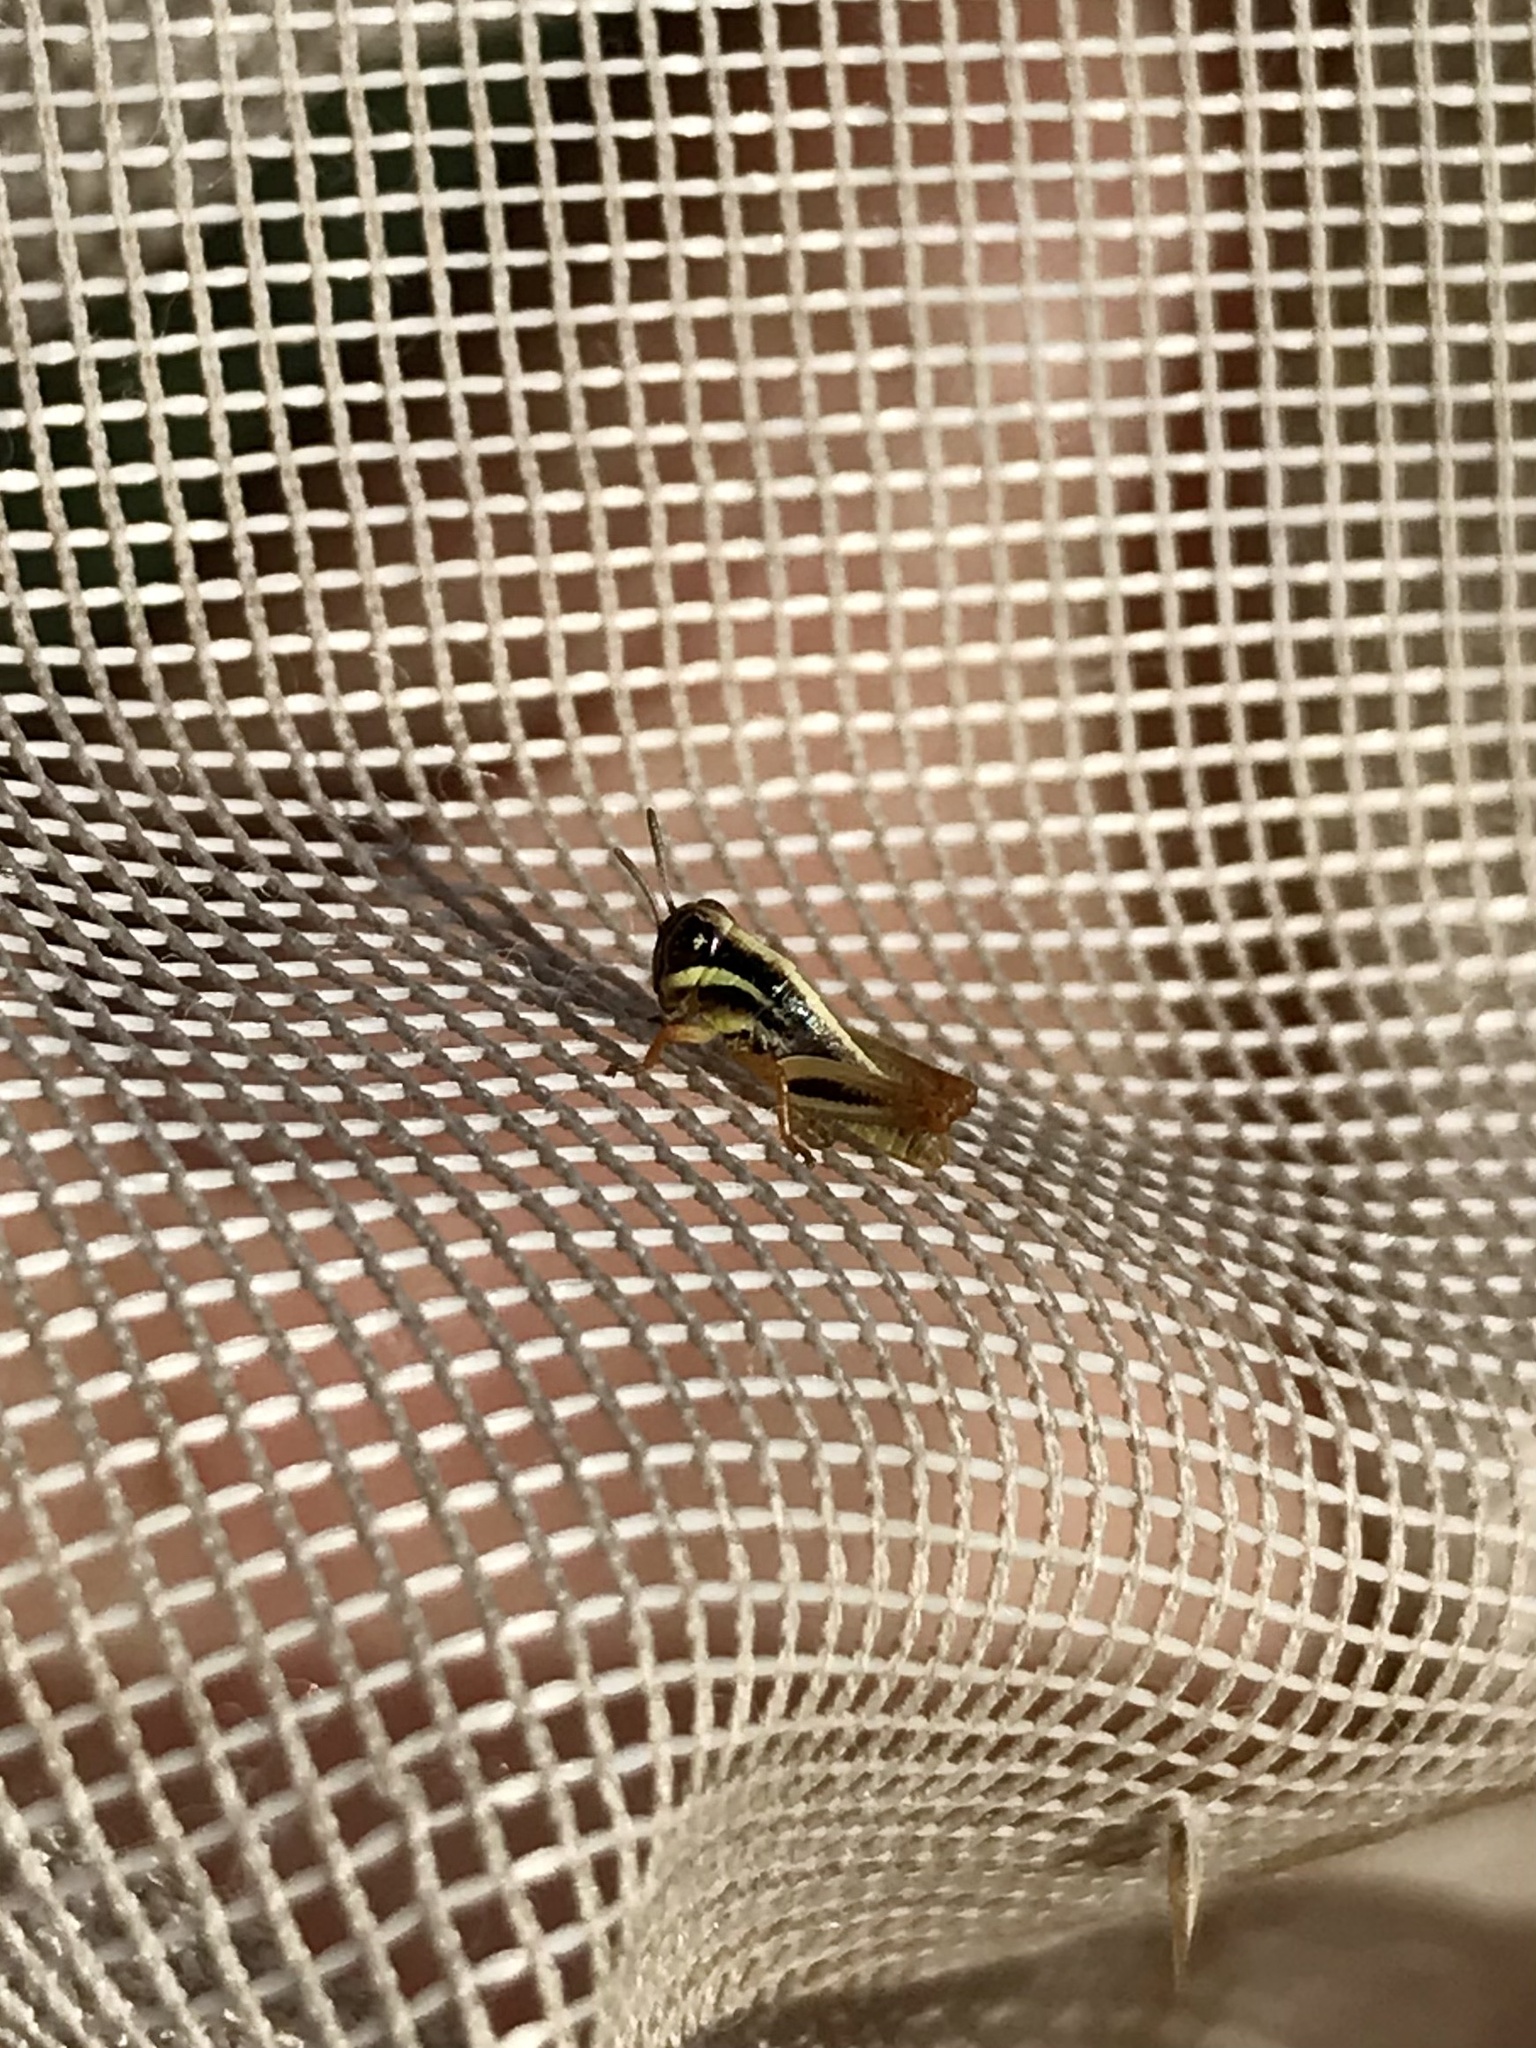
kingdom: Animalia
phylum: Arthropoda
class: Insecta
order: Orthoptera
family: Acrididae
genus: Melanoplus
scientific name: Melanoplus dawsoni
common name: Dawson grasshopper
